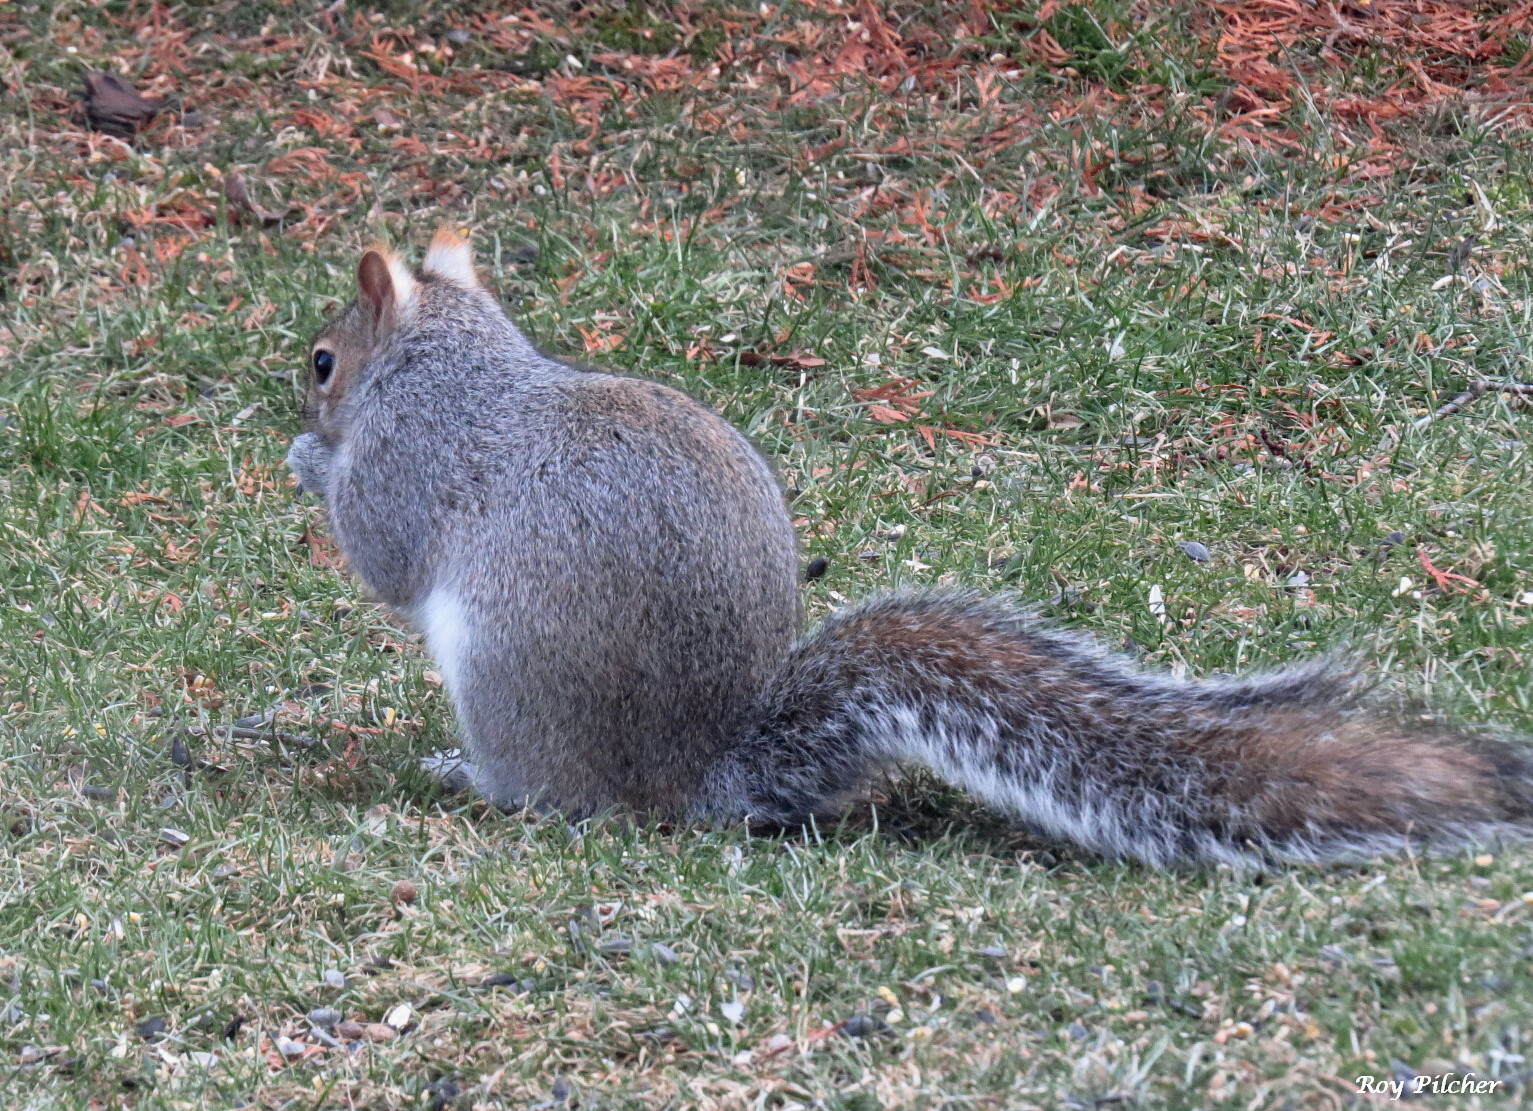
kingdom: Animalia
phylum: Chordata
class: Mammalia
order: Rodentia
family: Sciuridae
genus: Sciurus
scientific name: Sciurus carolinensis
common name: Eastern gray squirrel
